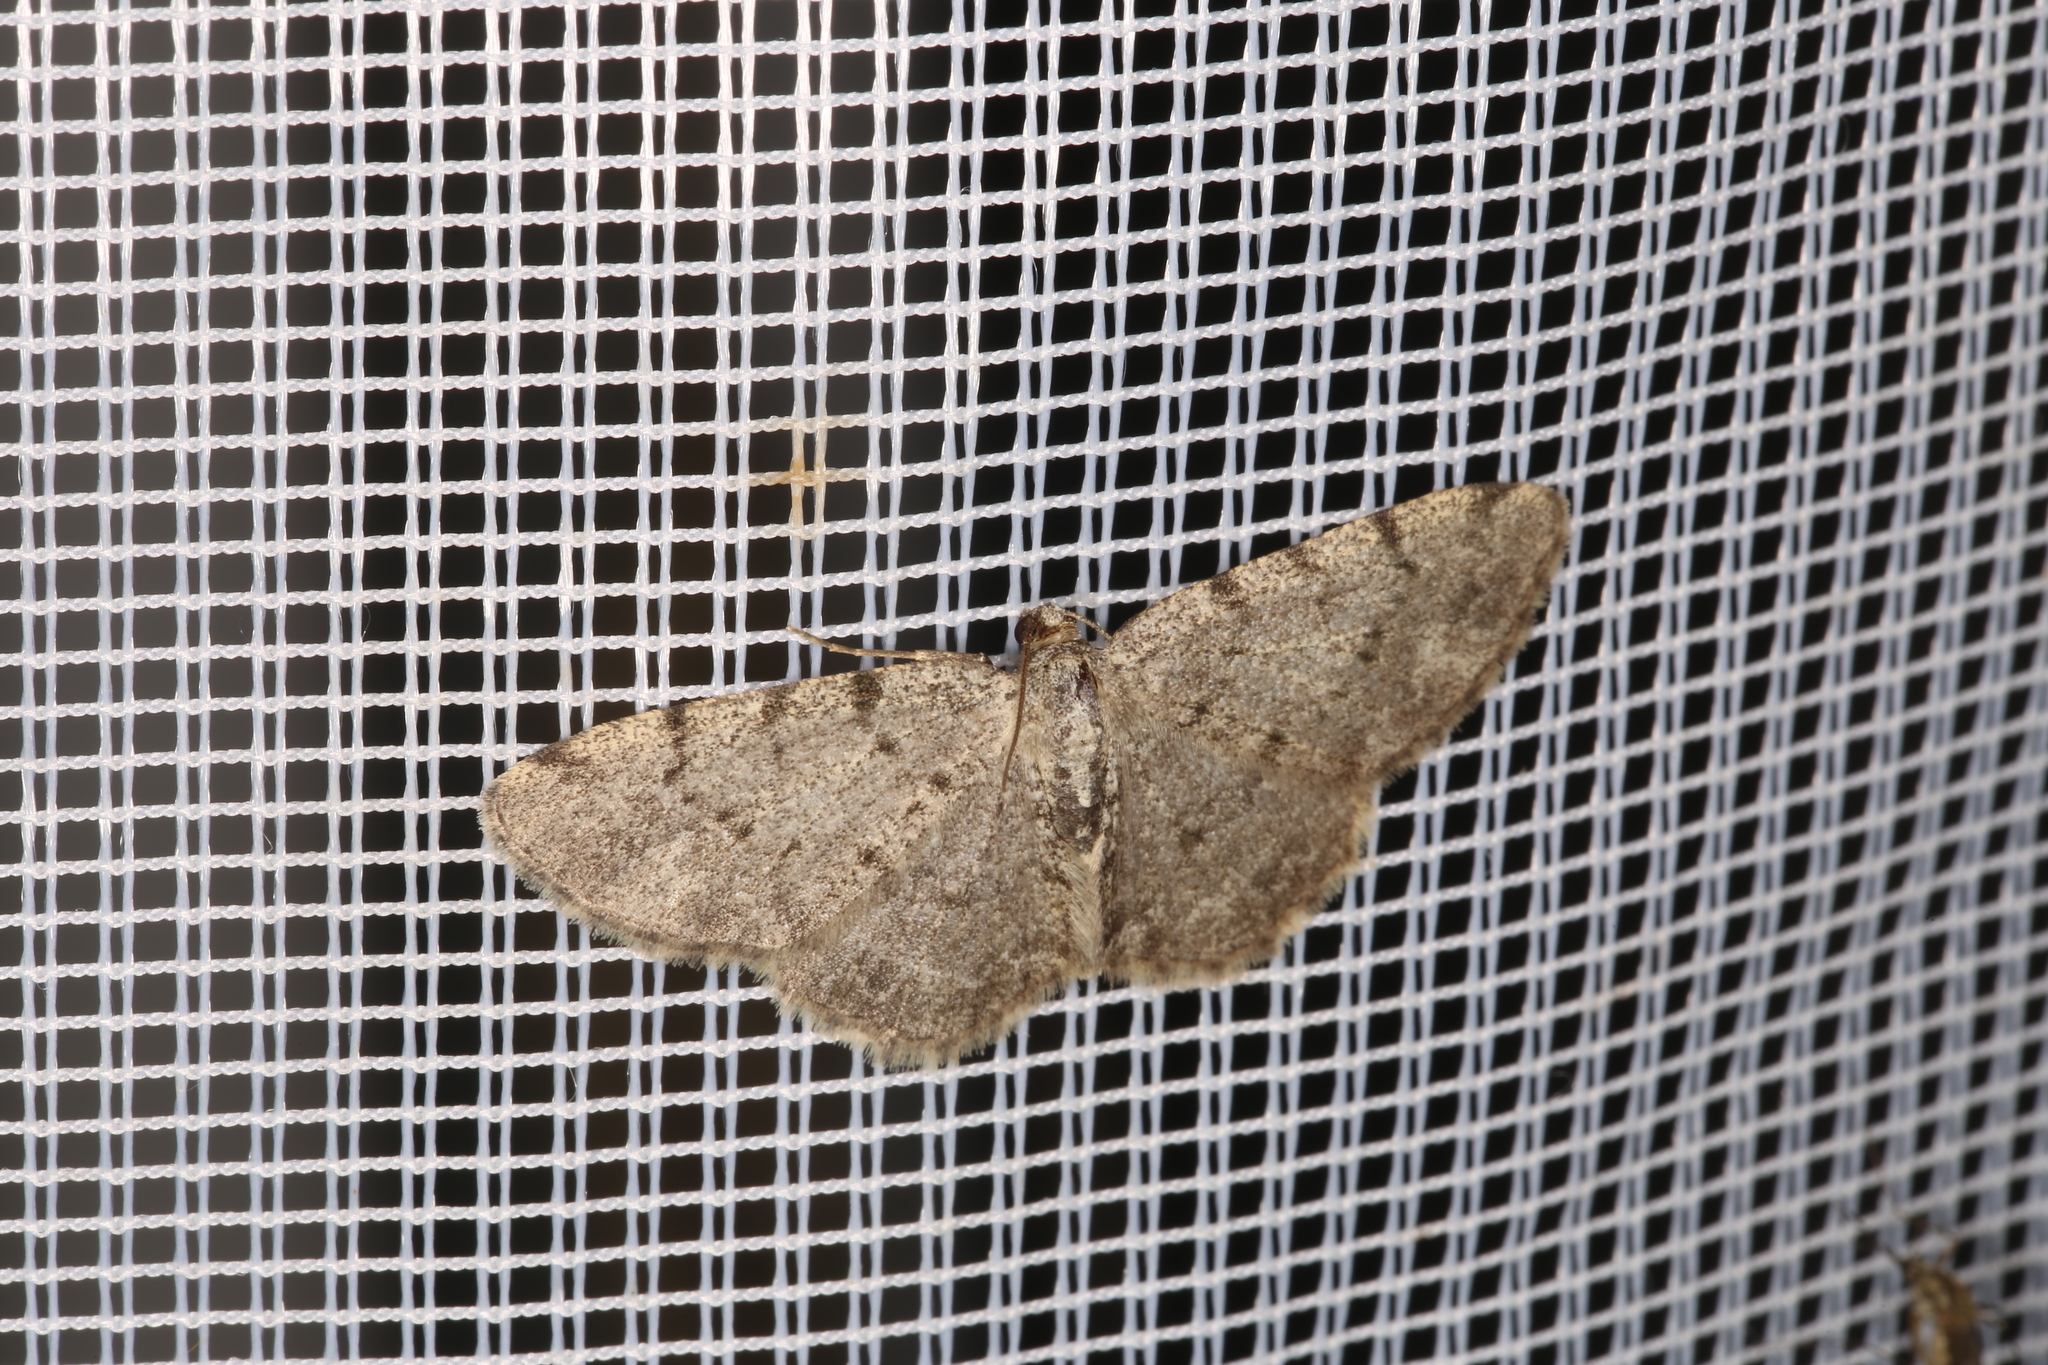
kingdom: Animalia
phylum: Arthropoda
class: Insecta
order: Lepidoptera
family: Geometridae
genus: Aethalura
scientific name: Aethalura punctulata
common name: Grey birch
